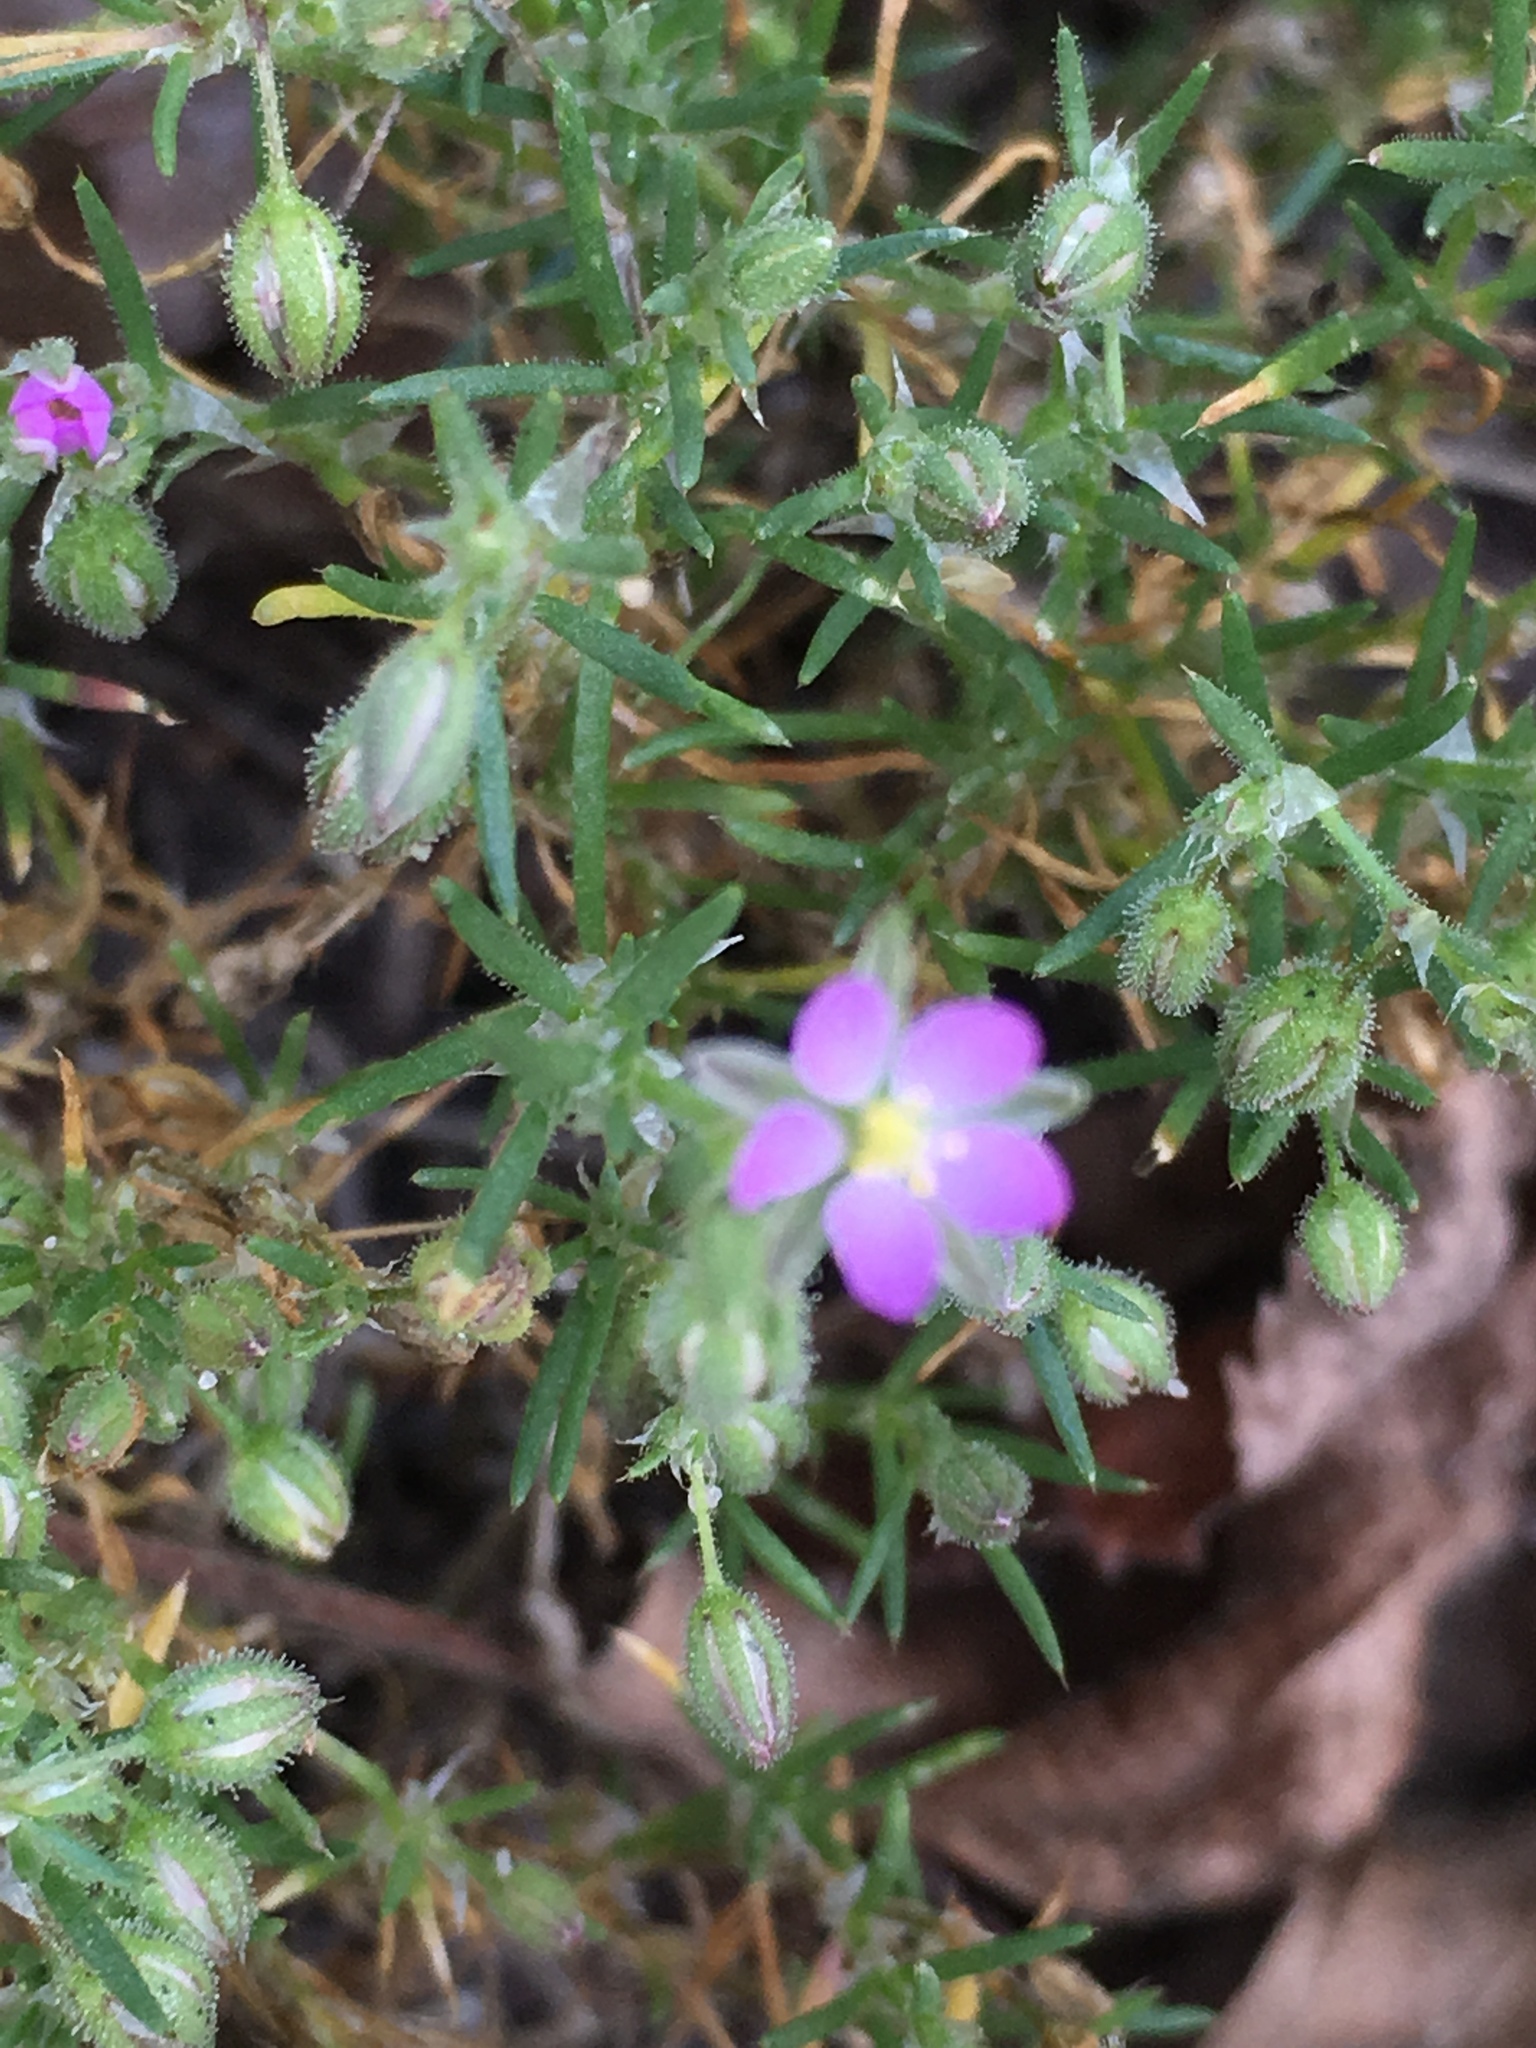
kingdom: Plantae
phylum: Tracheophyta
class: Magnoliopsida
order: Caryophyllales
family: Caryophyllaceae
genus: Spergularia
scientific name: Spergularia rubra
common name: Red sand-spurrey
